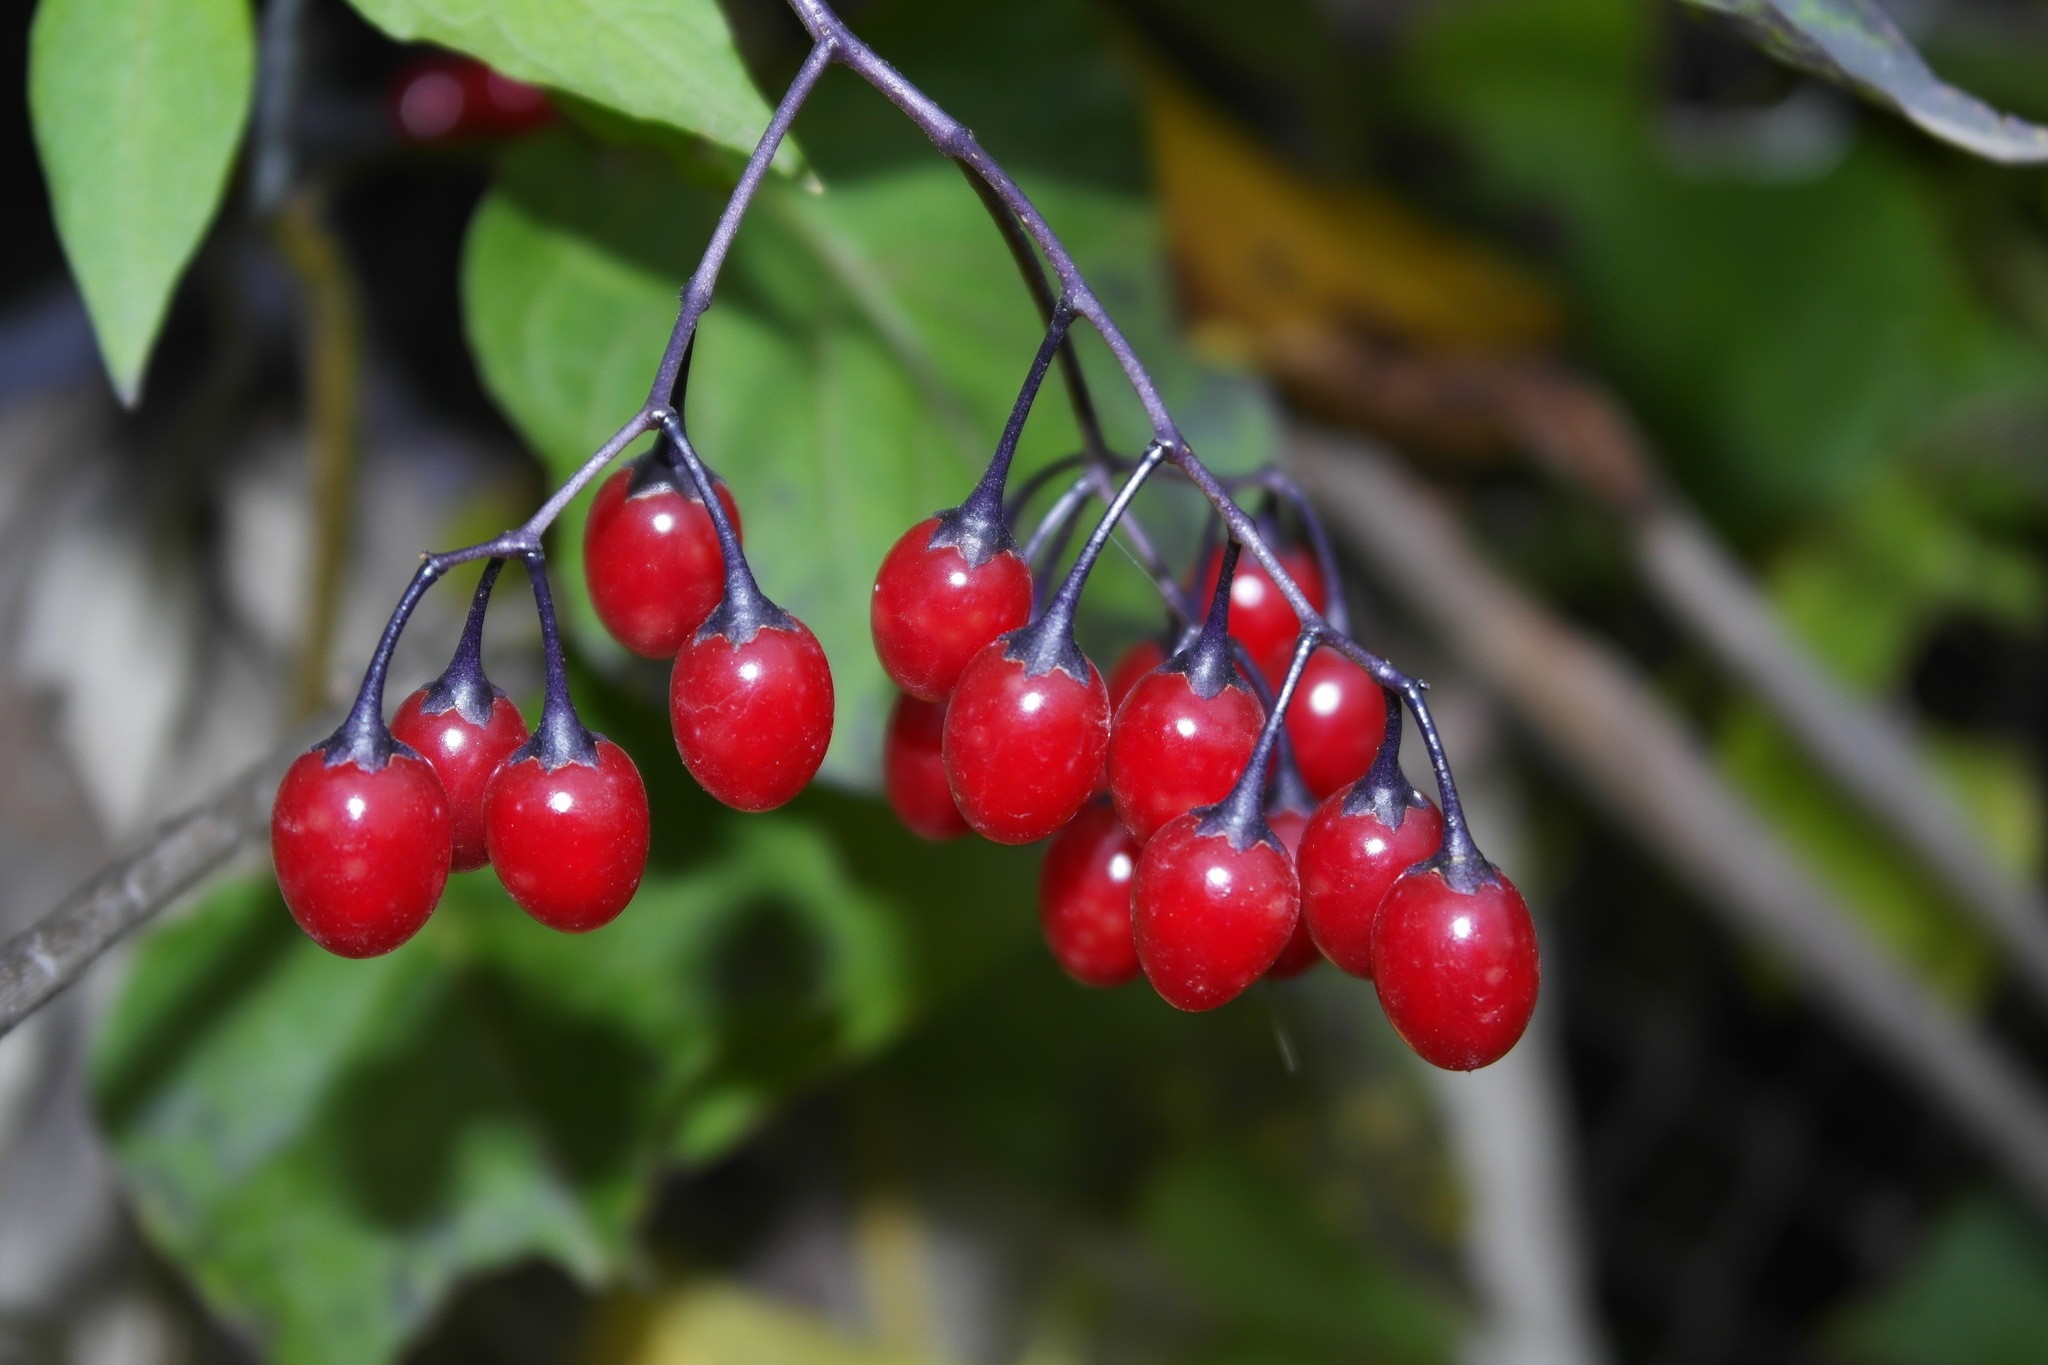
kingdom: Plantae
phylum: Tracheophyta
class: Magnoliopsida
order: Solanales
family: Solanaceae
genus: Solanum
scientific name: Solanum dulcamara
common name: Climbing nightshade
